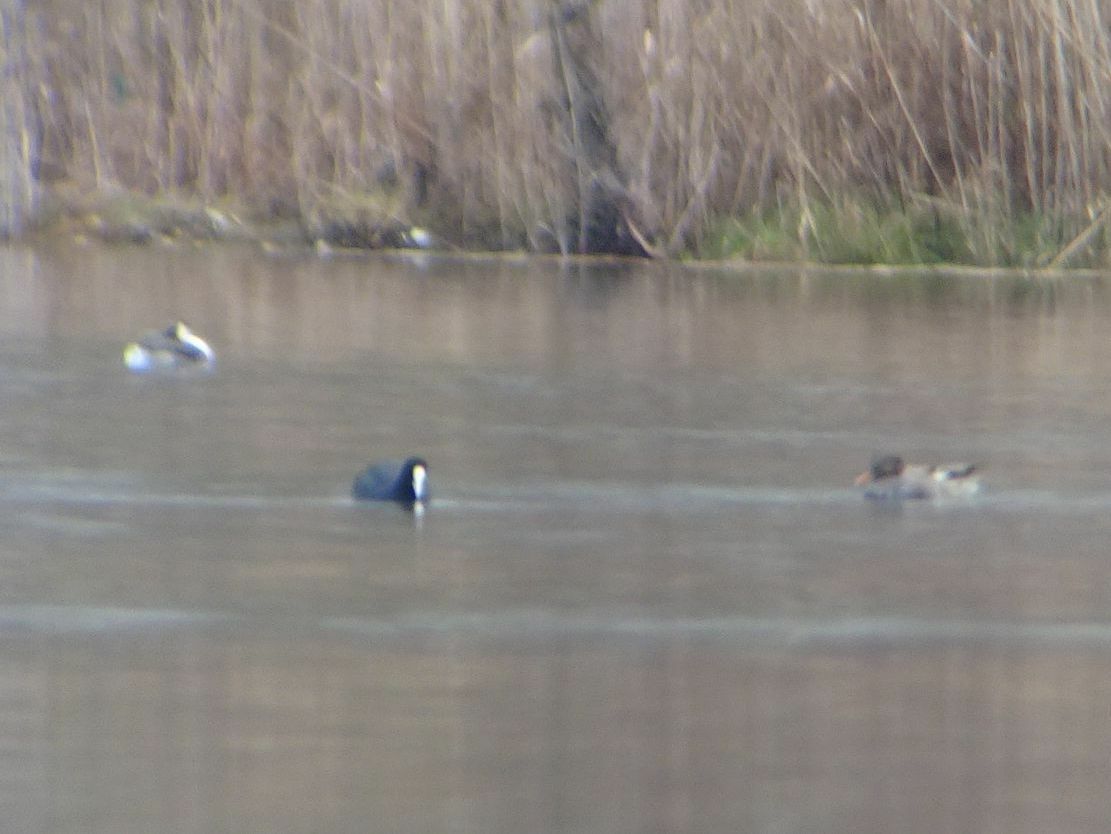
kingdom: Animalia
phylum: Chordata
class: Aves
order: Anseriformes
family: Anatidae
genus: Mareca
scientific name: Mareca strepera
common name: Gadwall
